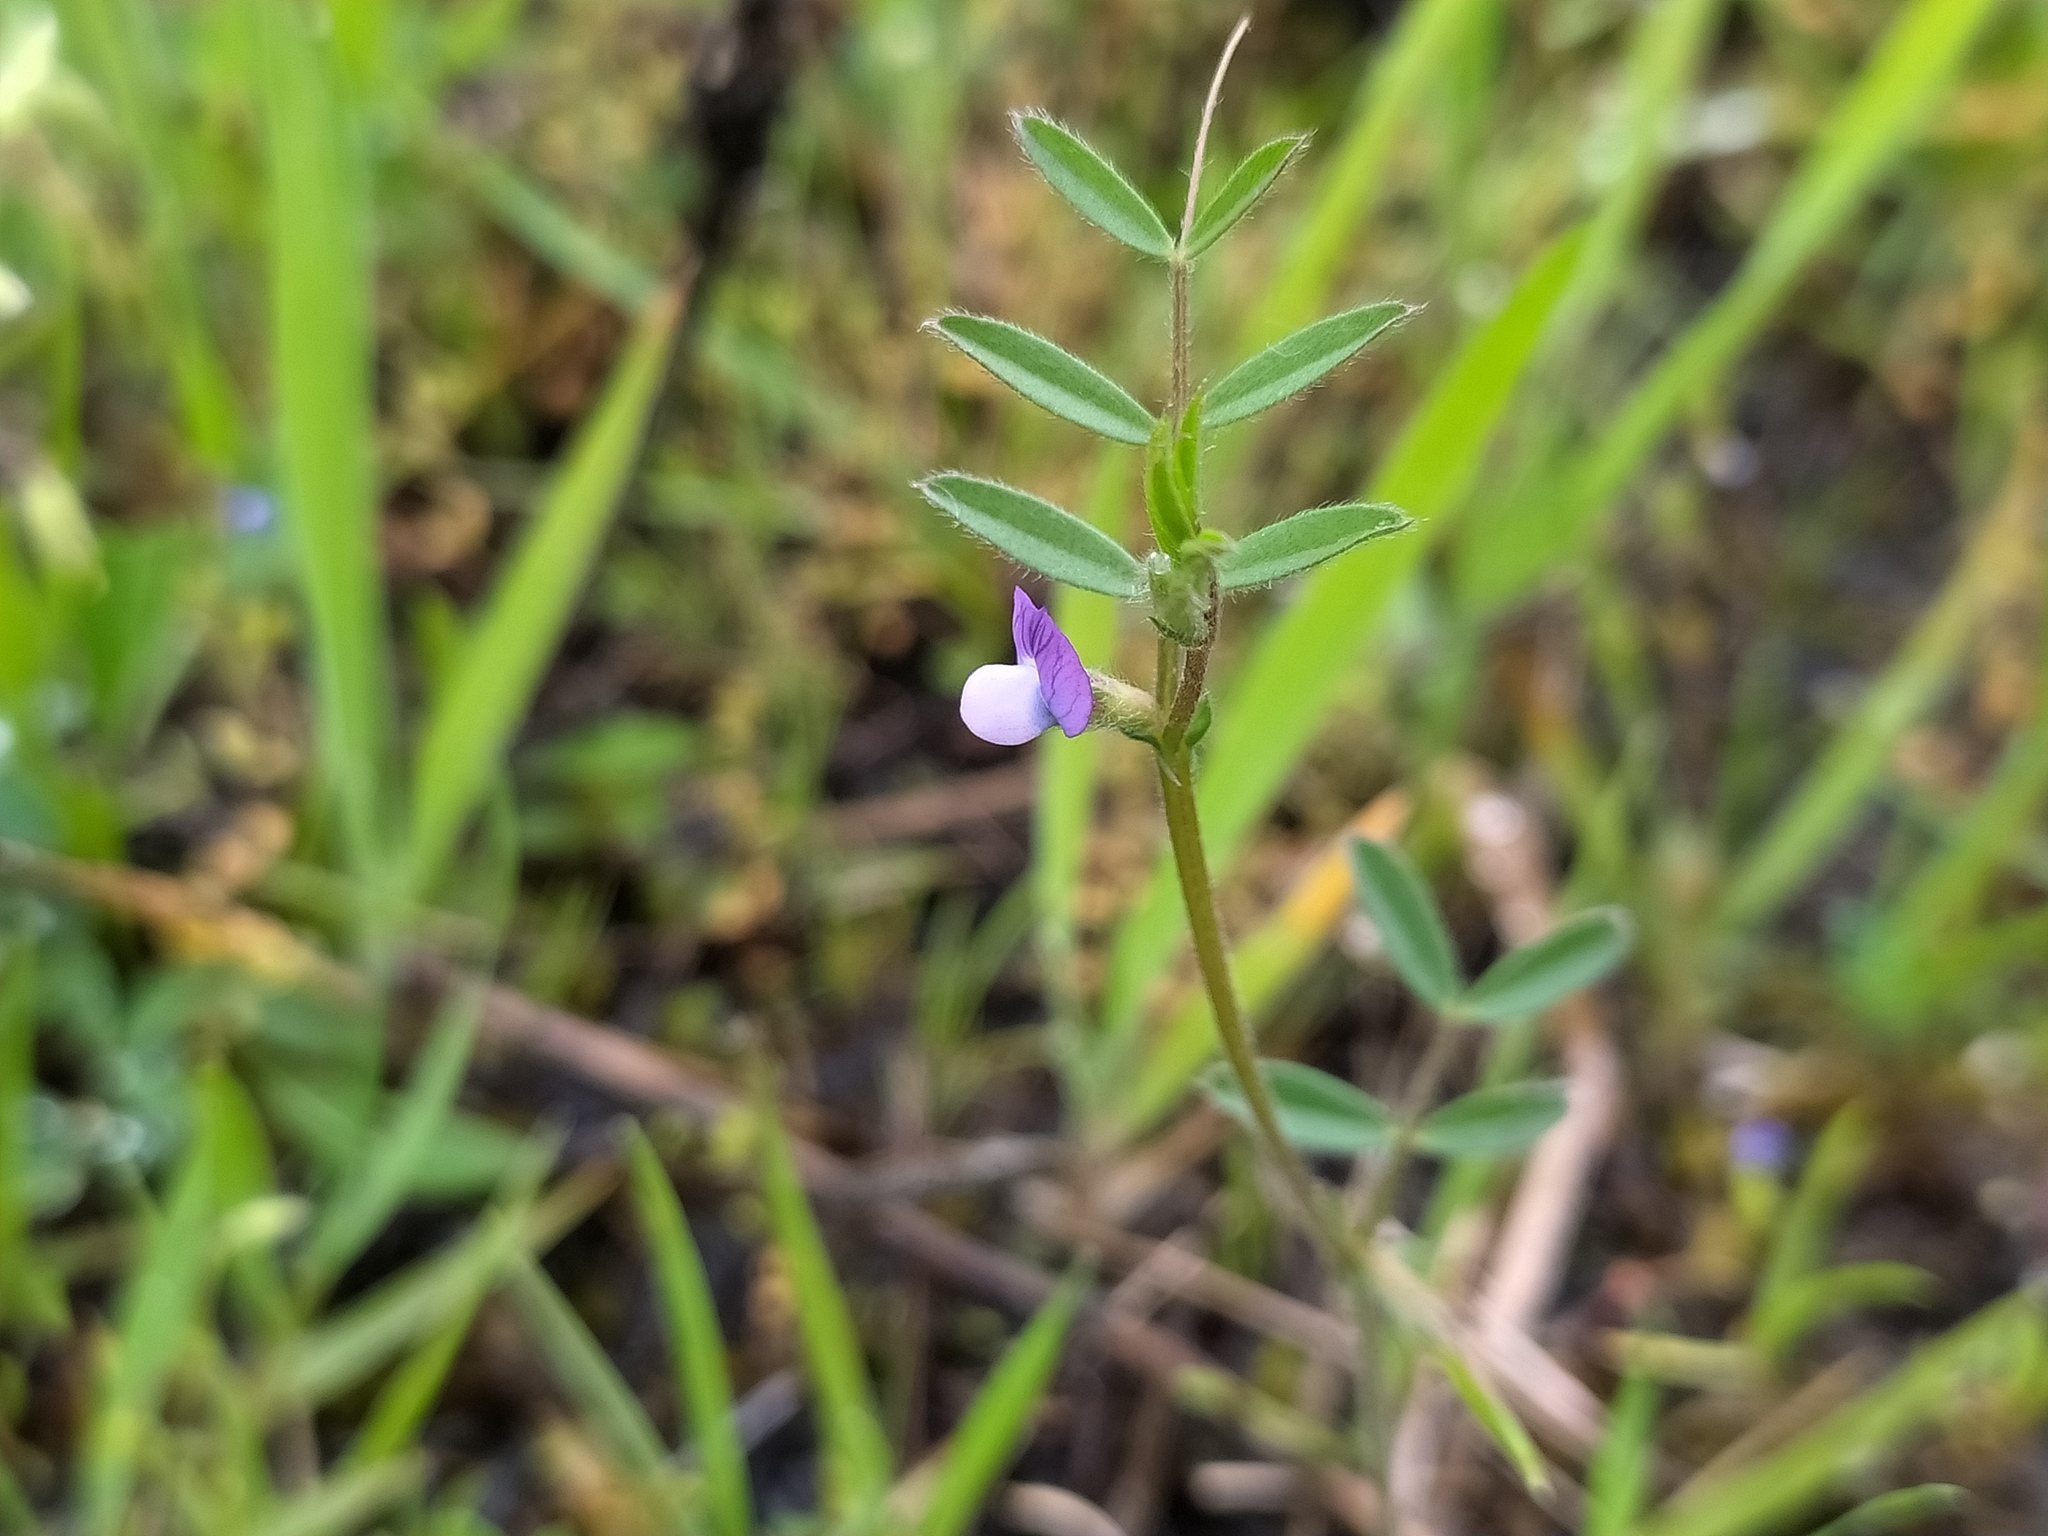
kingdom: Plantae
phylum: Tracheophyta
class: Magnoliopsida
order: Fabales
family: Fabaceae
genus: Vicia
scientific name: Vicia lathyroides
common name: Spring vetch
